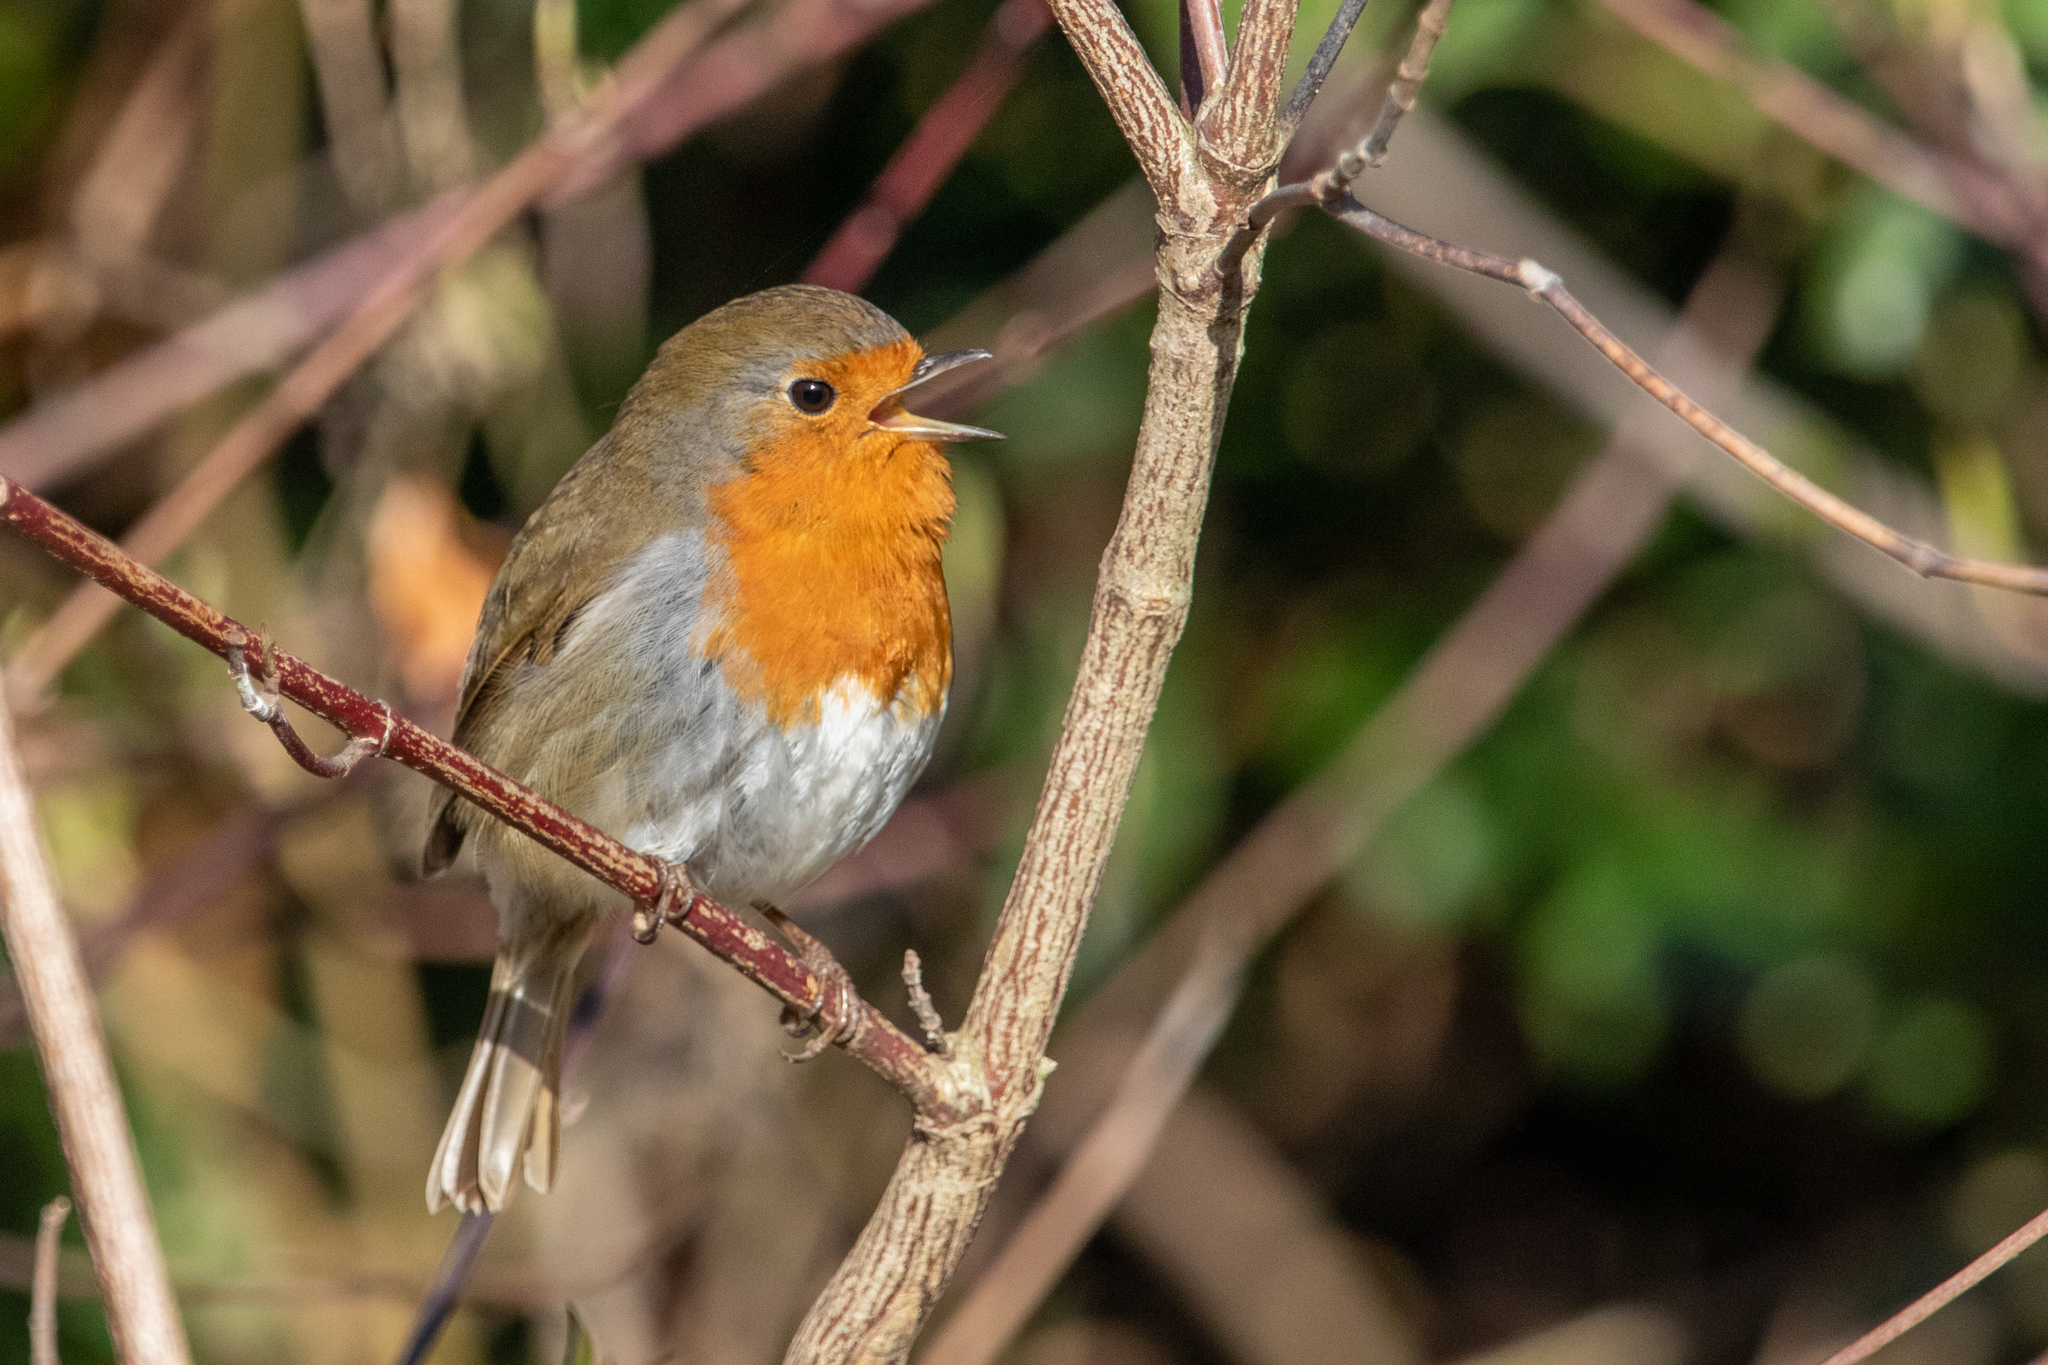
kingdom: Animalia
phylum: Chordata
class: Aves
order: Passeriformes
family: Muscicapidae
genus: Erithacus
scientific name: Erithacus rubecula
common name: European robin
